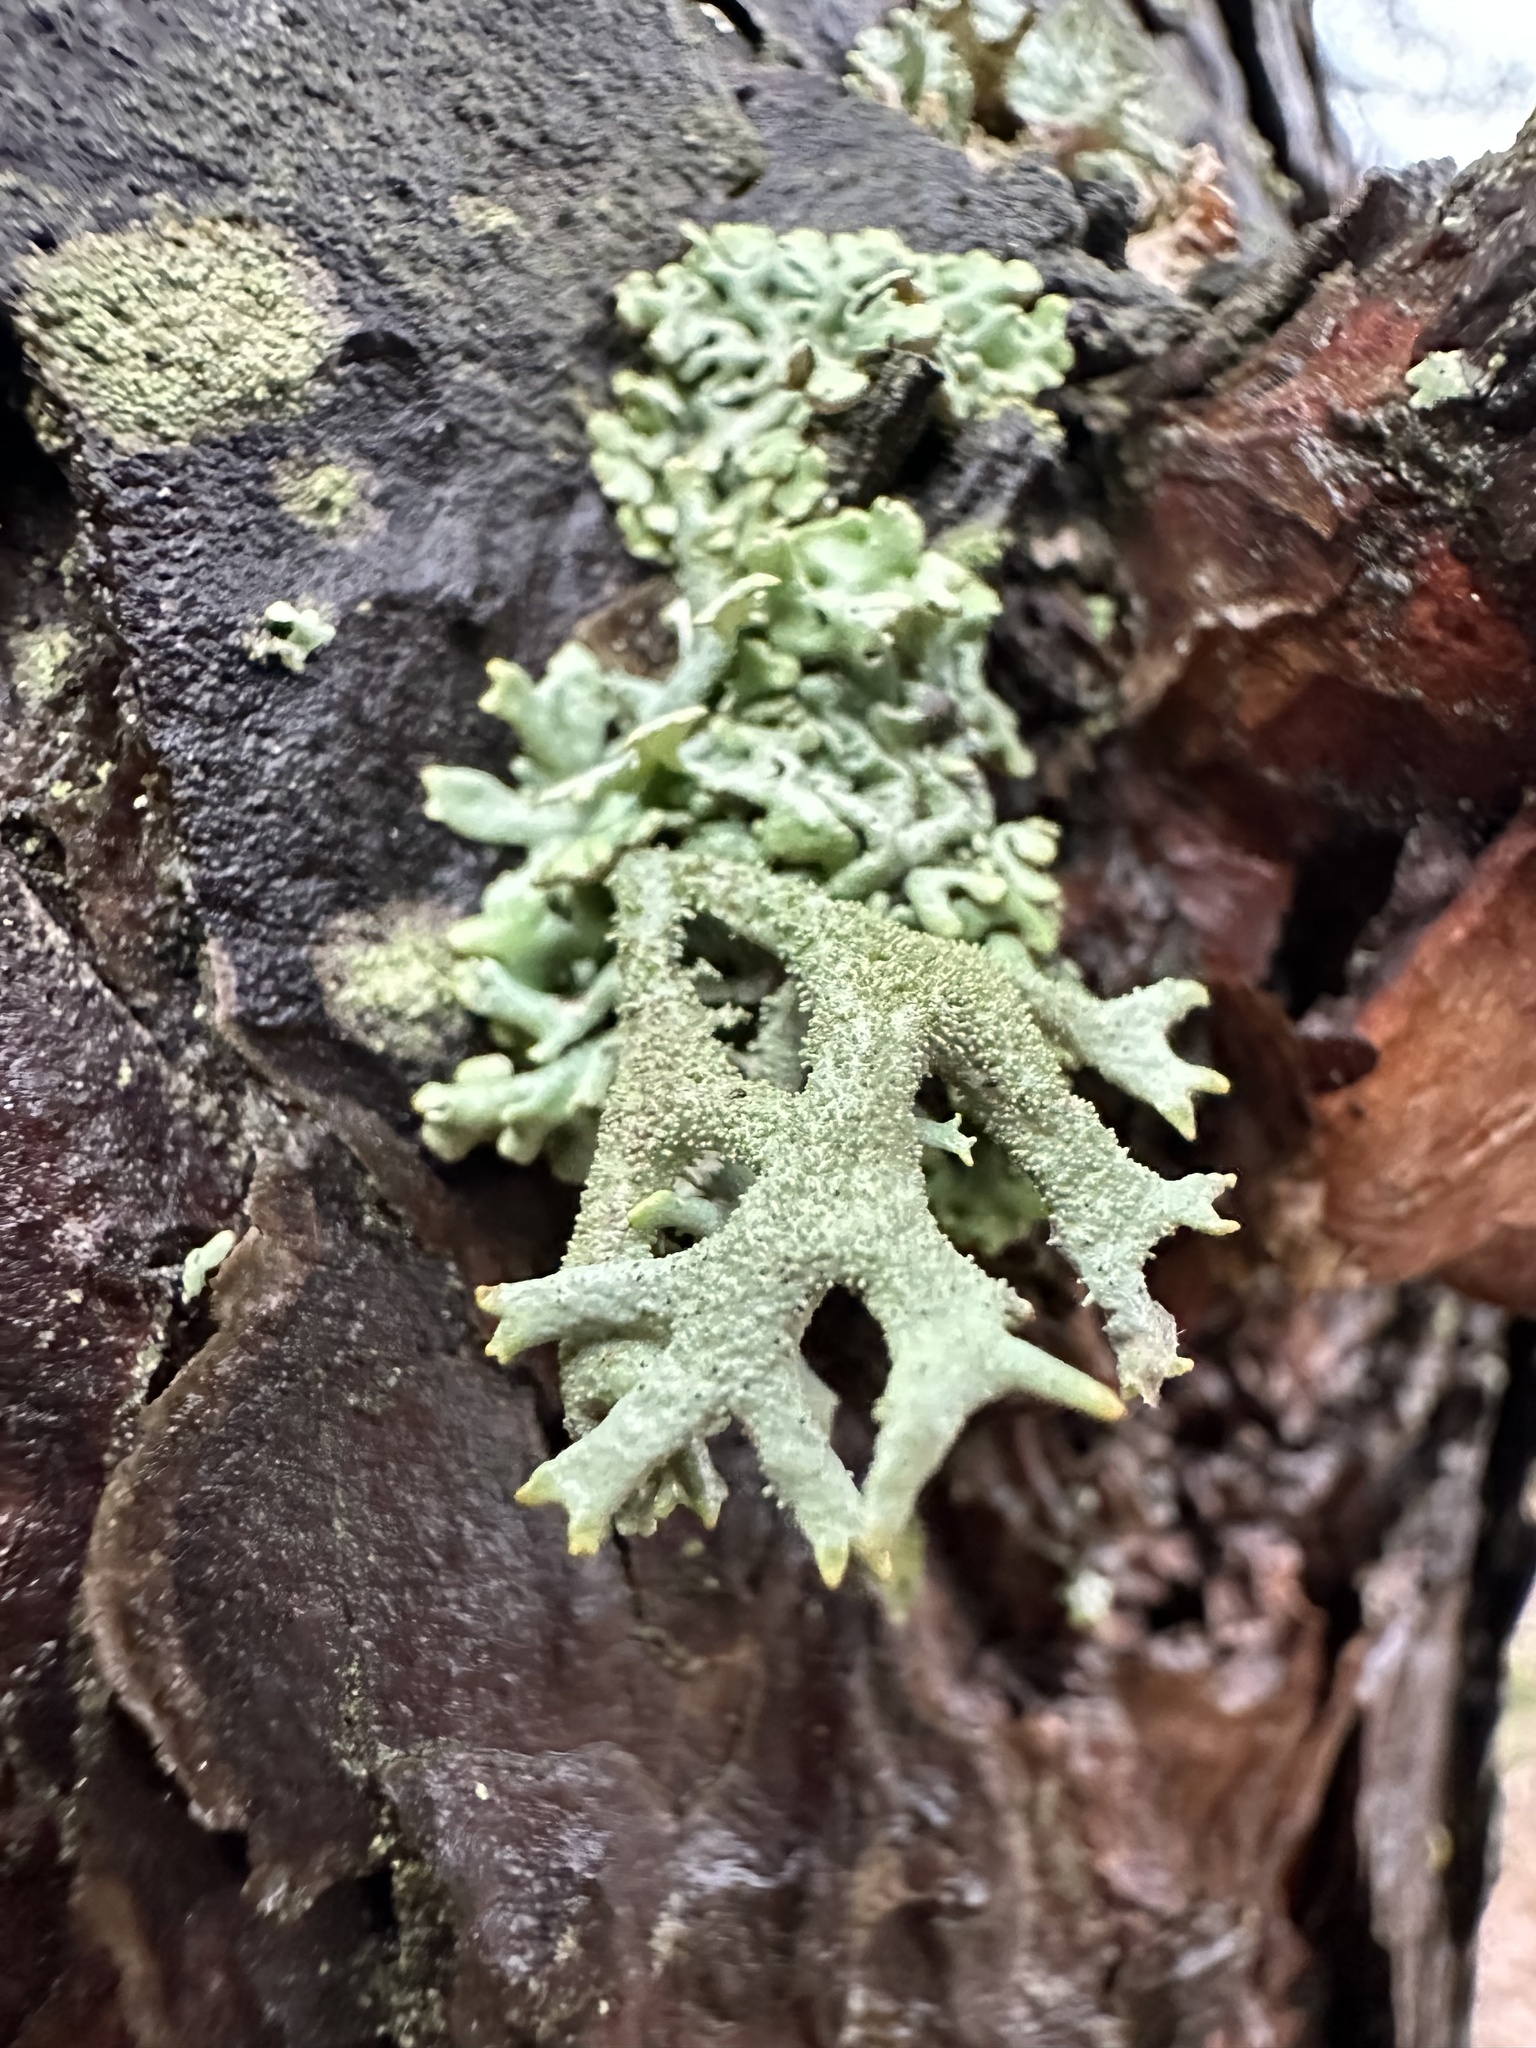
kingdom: Fungi
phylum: Ascomycota
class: Lecanoromycetes
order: Lecanorales
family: Parmeliaceae
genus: Pseudevernia
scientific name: Pseudevernia furfuracea
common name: Tree moss
